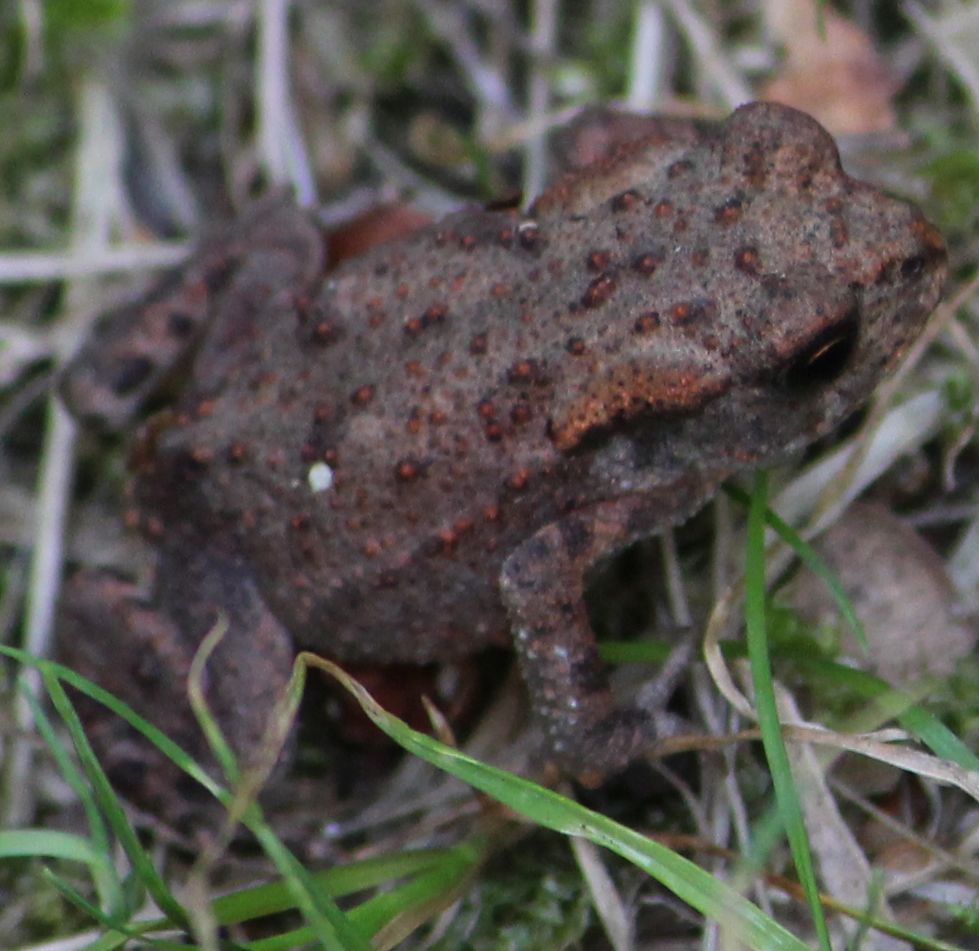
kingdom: Animalia
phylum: Chordata
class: Amphibia
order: Anura
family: Bufonidae
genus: Bufo
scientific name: Bufo bufo
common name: Common toad
